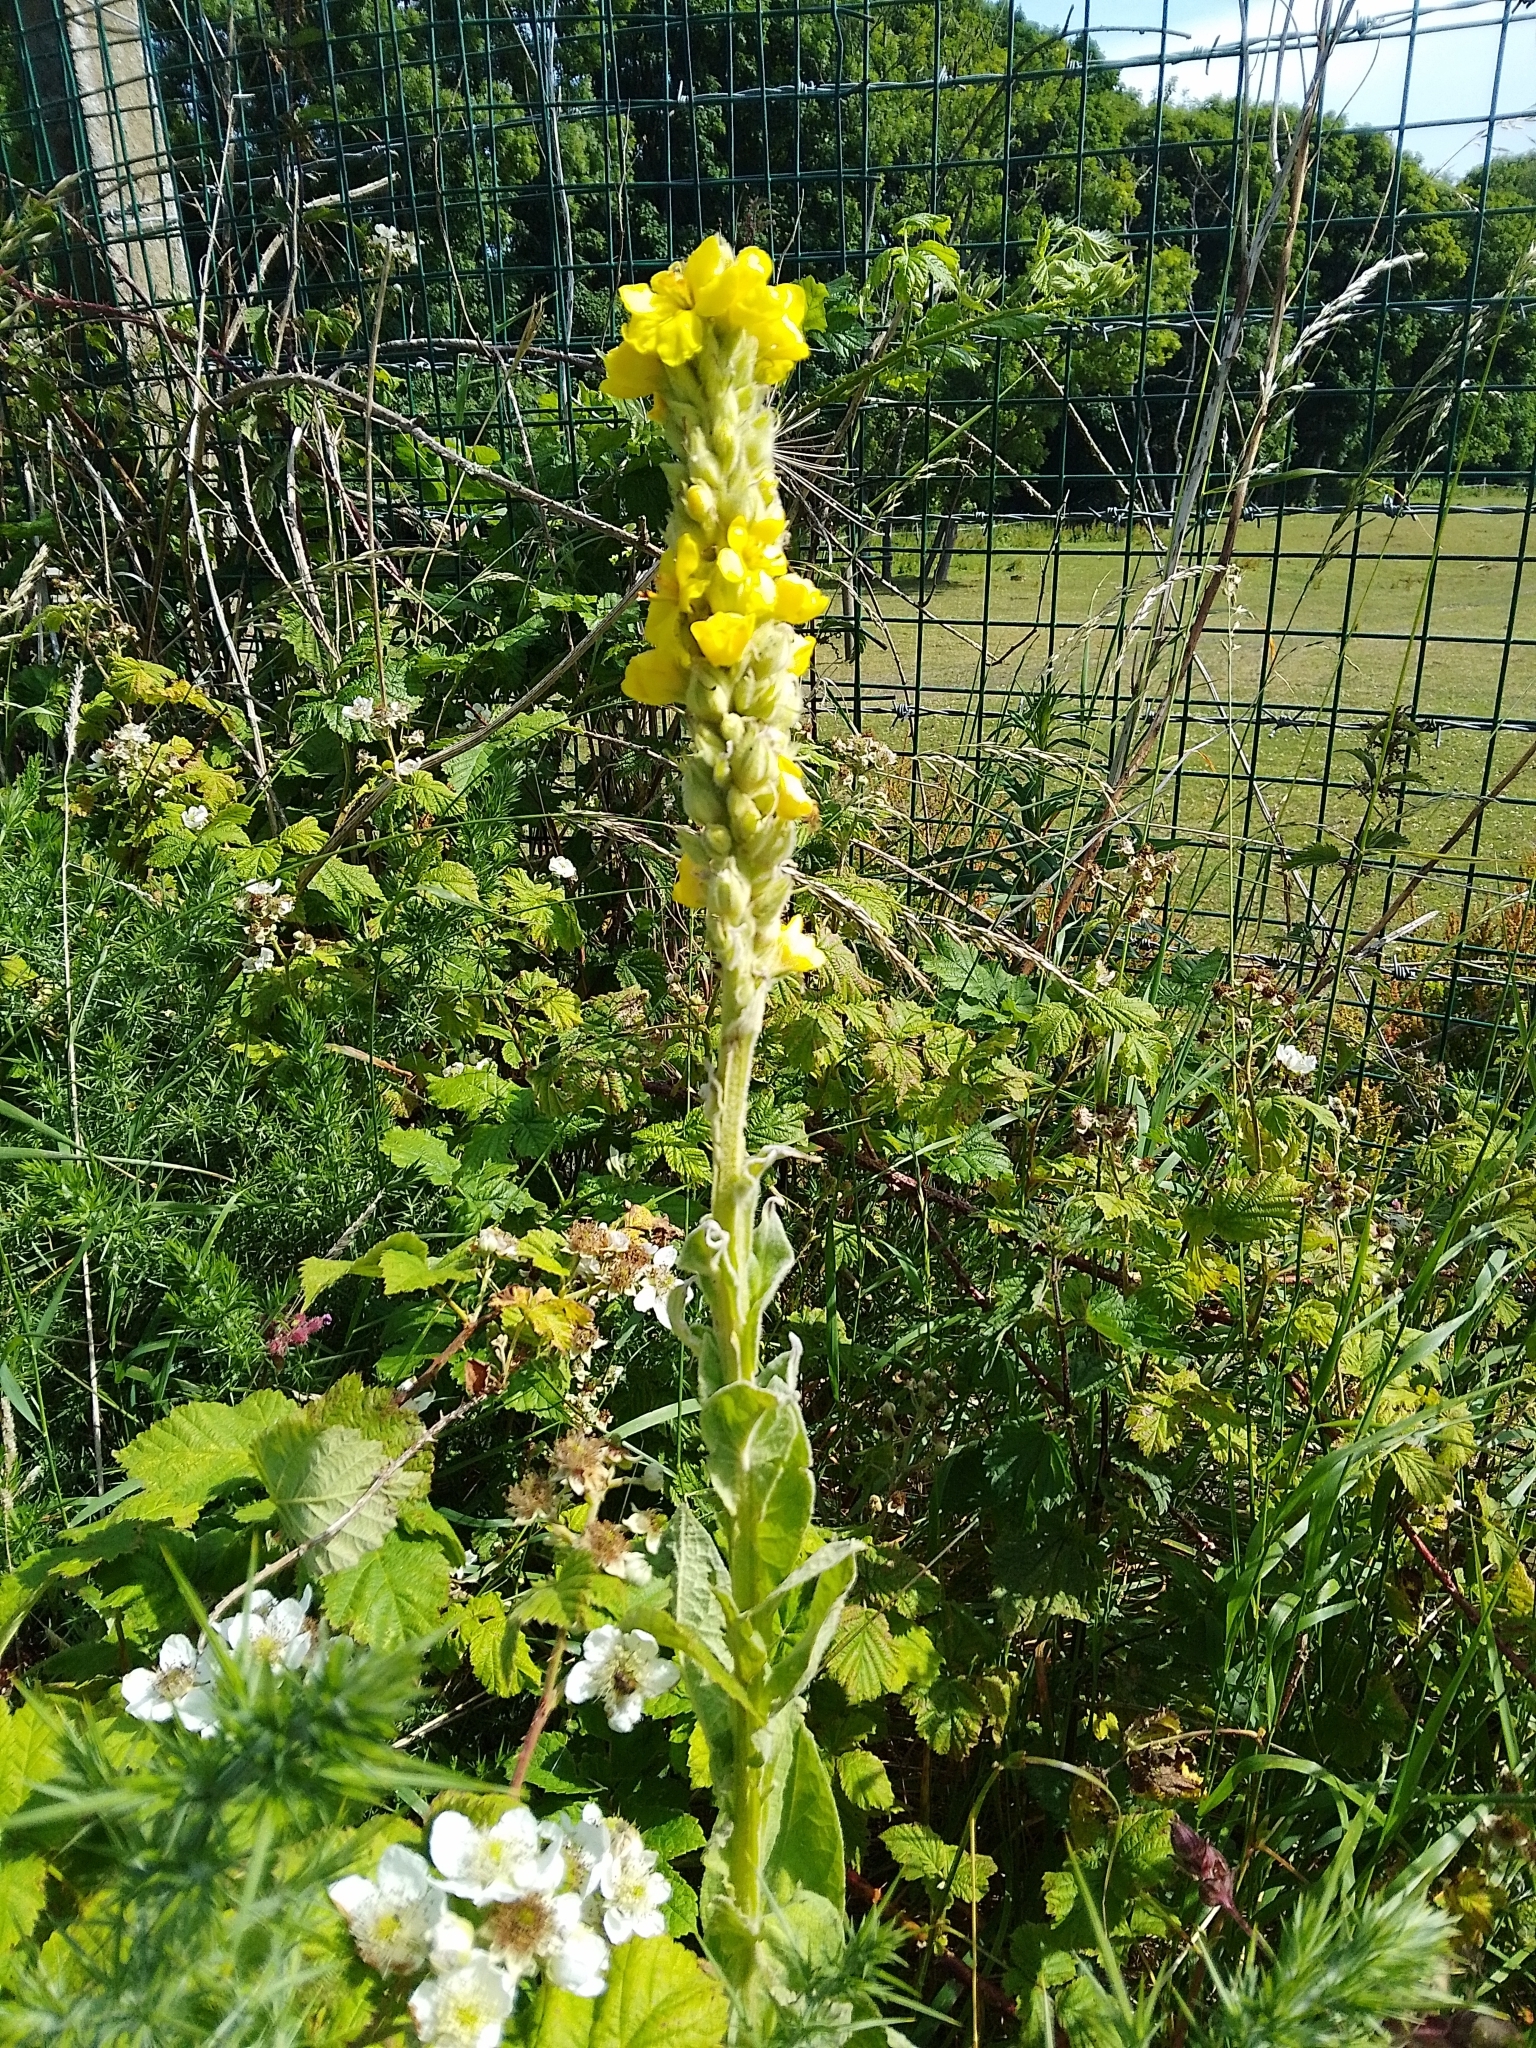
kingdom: Plantae
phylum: Tracheophyta
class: Magnoliopsida
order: Lamiales
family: Scrophulariaceae
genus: Verbascum
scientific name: Verbascum thapsus
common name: Common mullein
